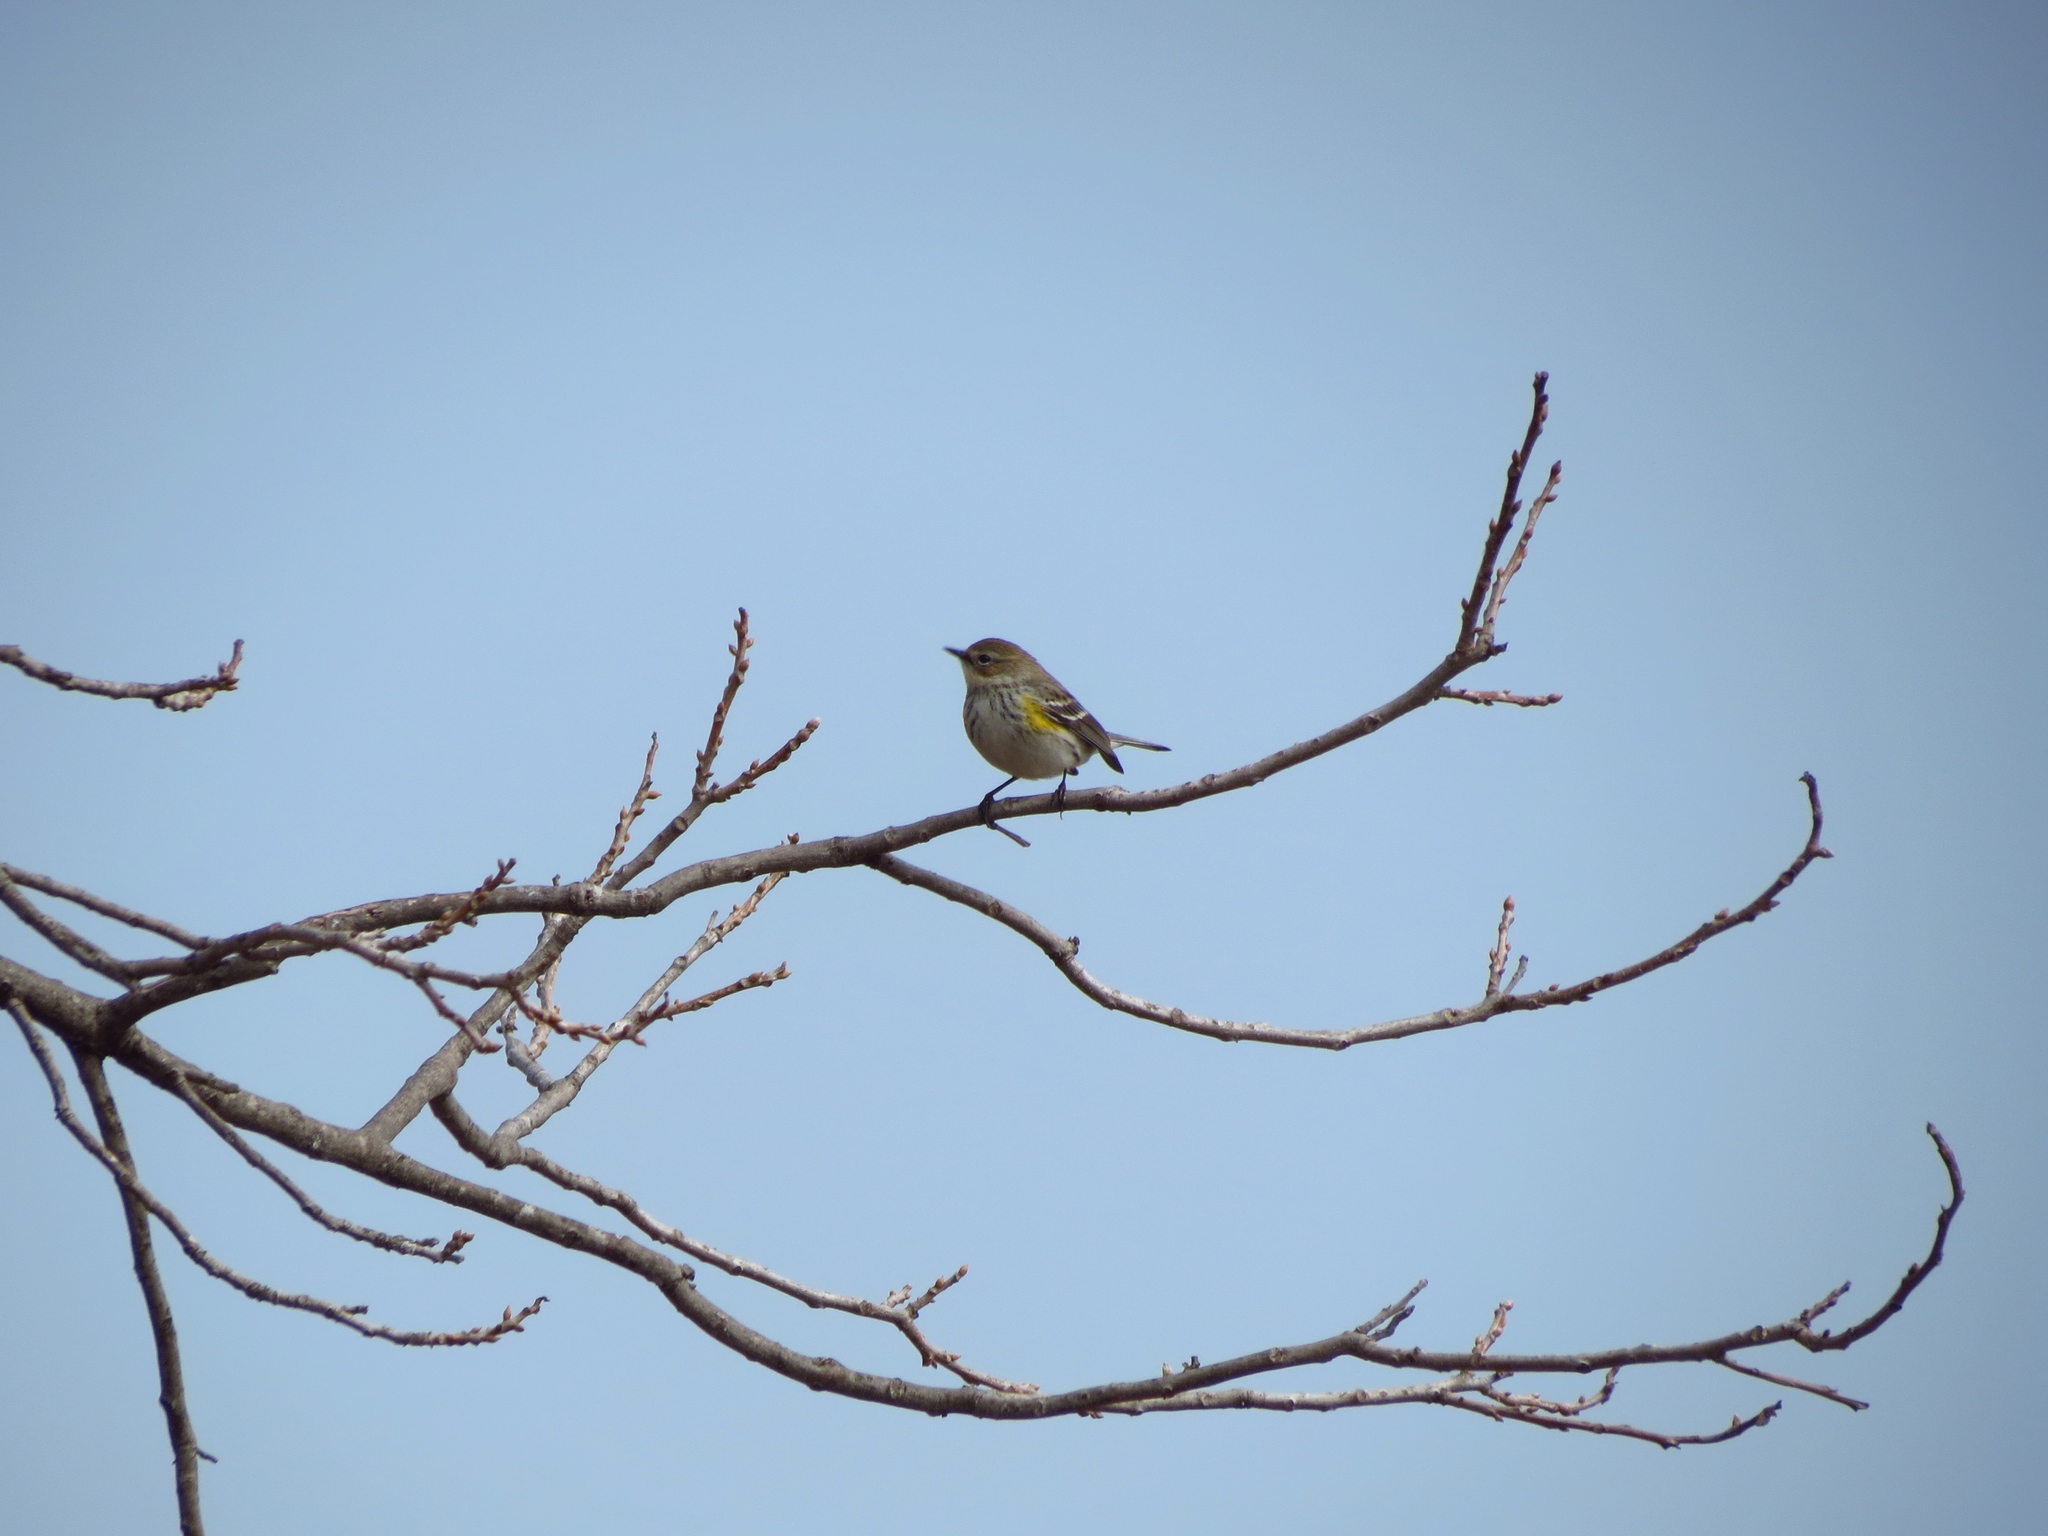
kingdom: Animalia
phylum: Chordata
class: Aves
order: Passeriformes
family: Parulidae
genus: Setophaga
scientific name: Setophaga coronata
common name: Myrtle warbler
